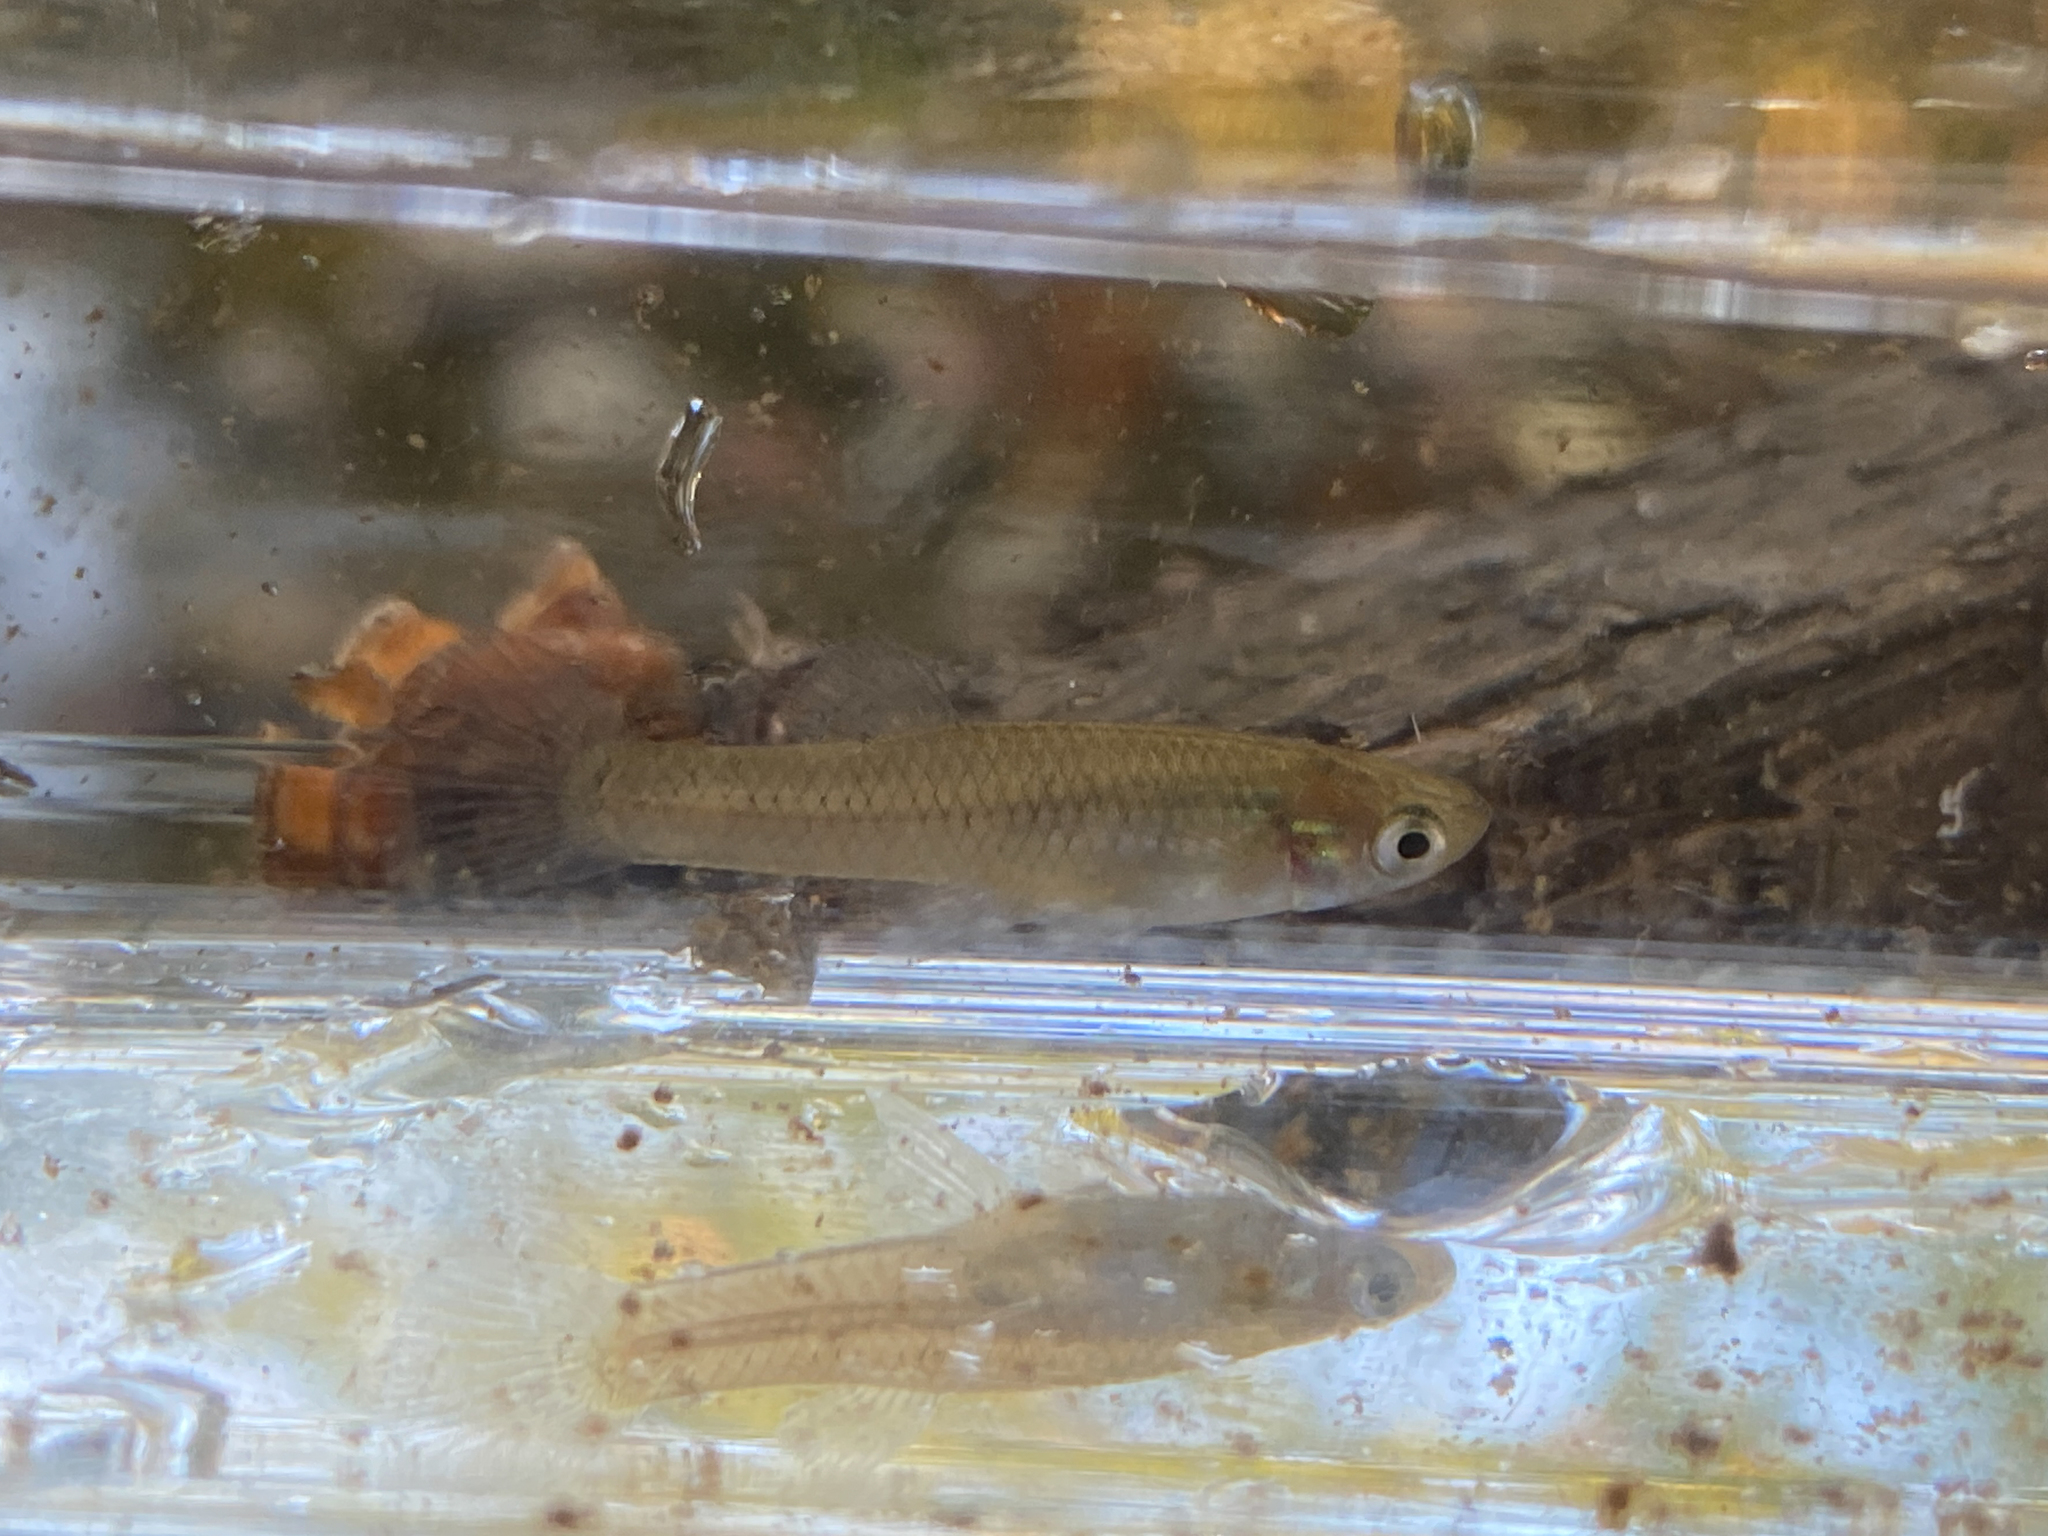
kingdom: Animalia
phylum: Chordata
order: Cyprinodontiformes
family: Poeciliidae
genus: Gambusia
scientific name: Gambusia holbrooki
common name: Eastern mosquitofish
